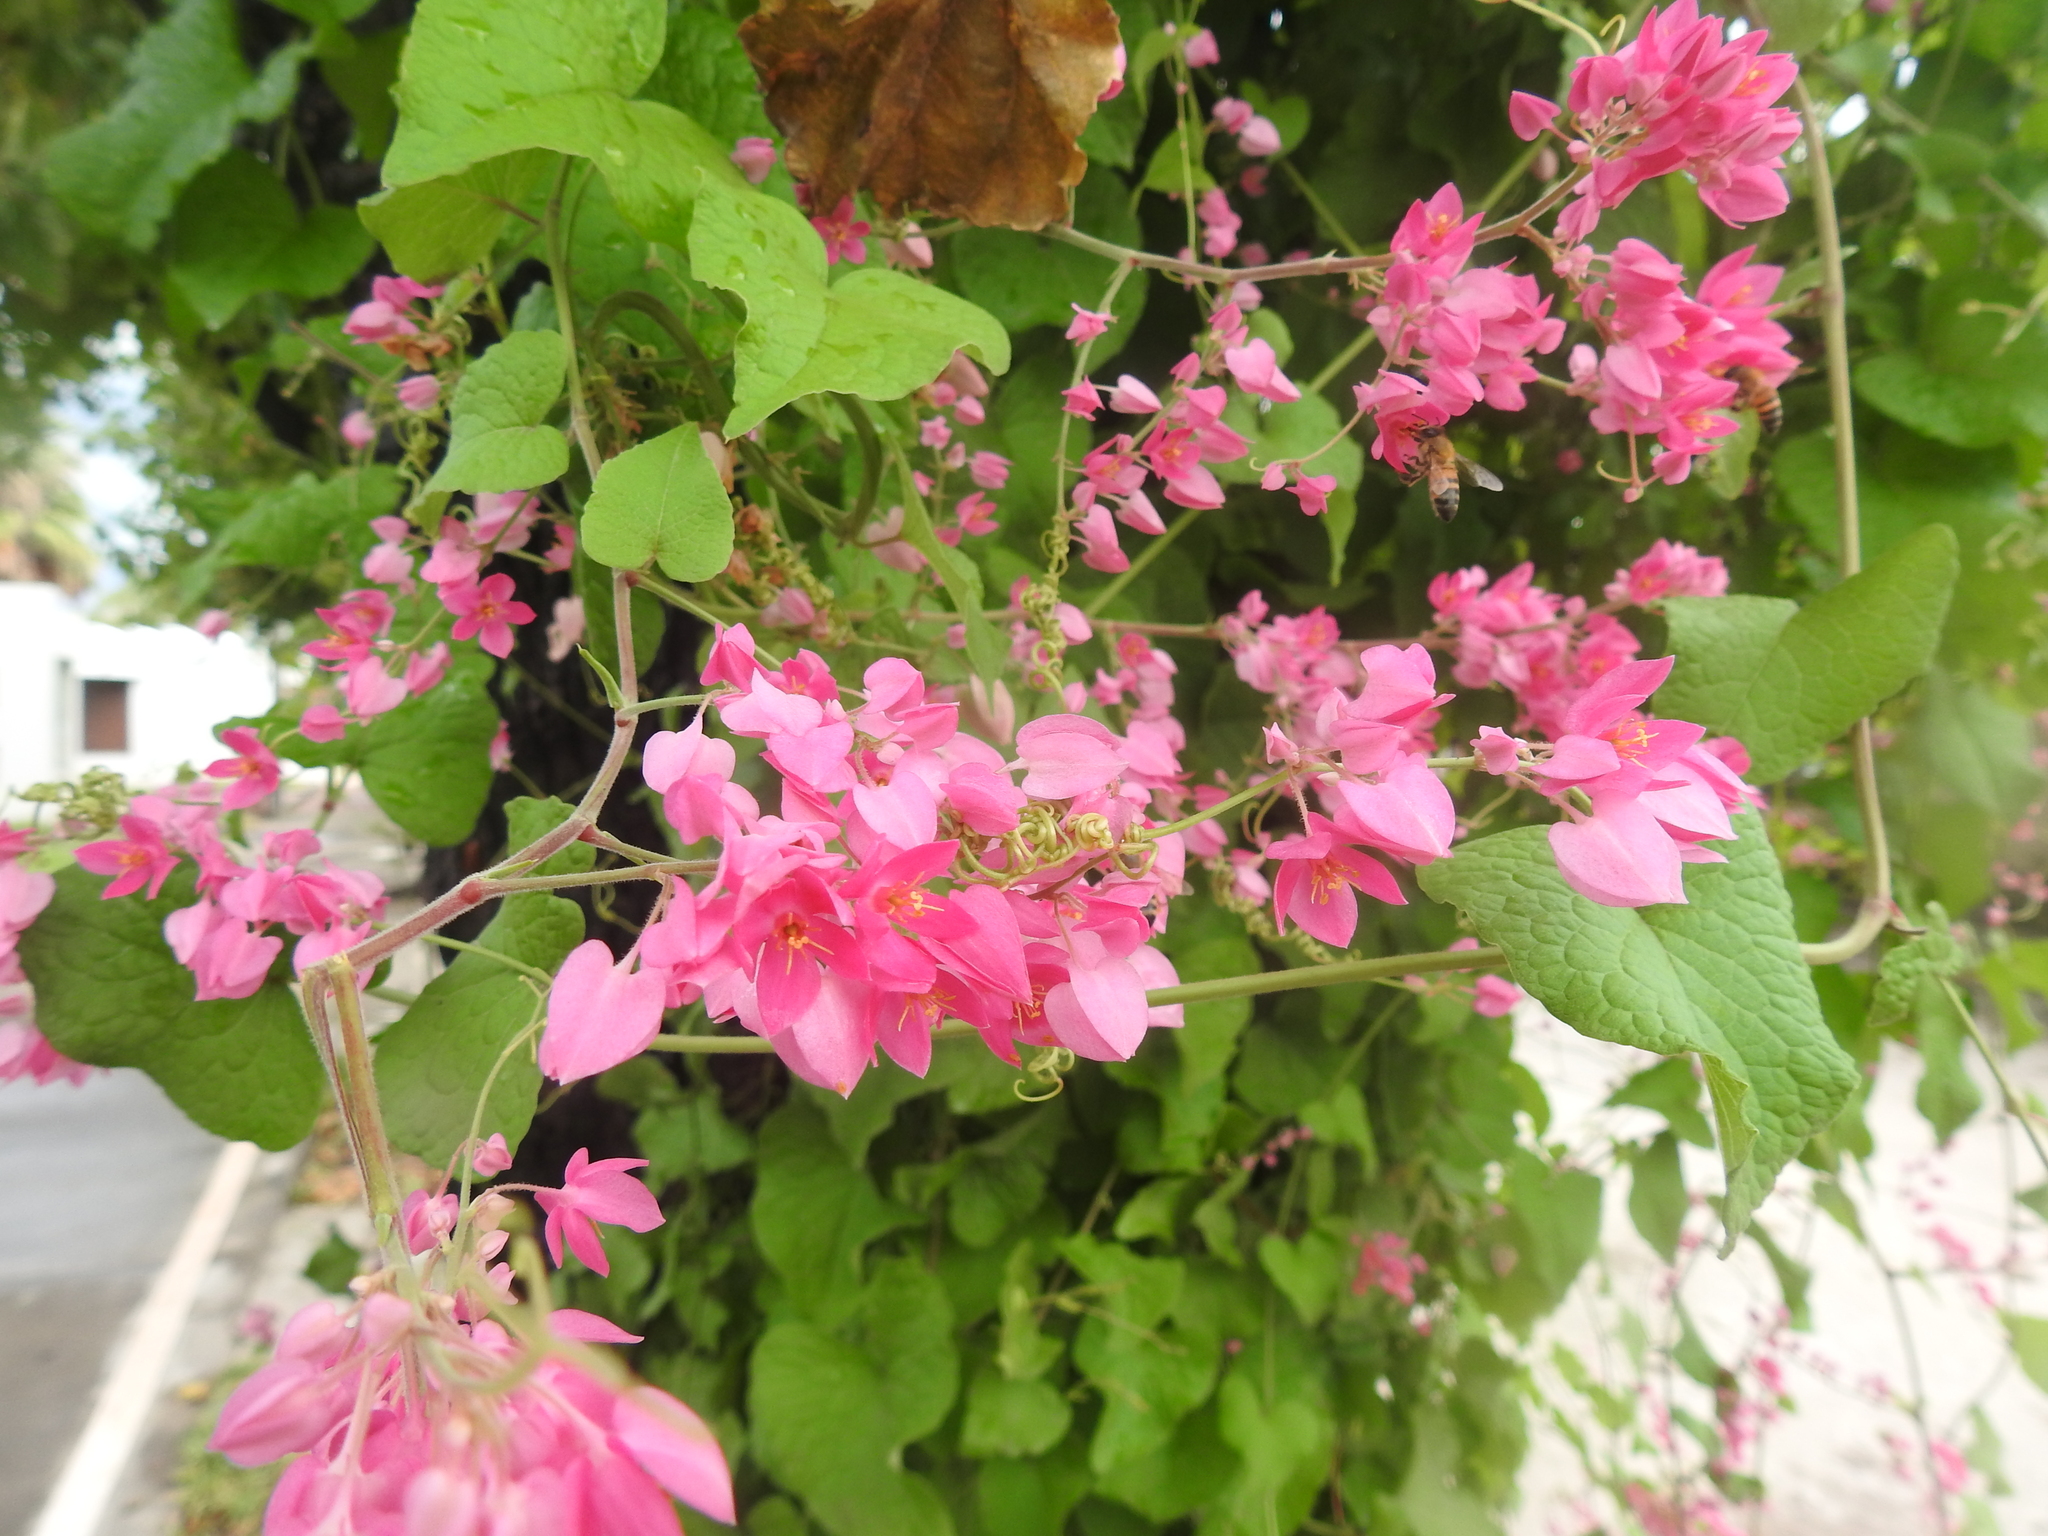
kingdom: Plantae
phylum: Tracheophyta
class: Magnoliopsida
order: Caryophyllales
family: Polygonaceae
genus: Antigonon
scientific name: Antigonon leptopus
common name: Coral vine
